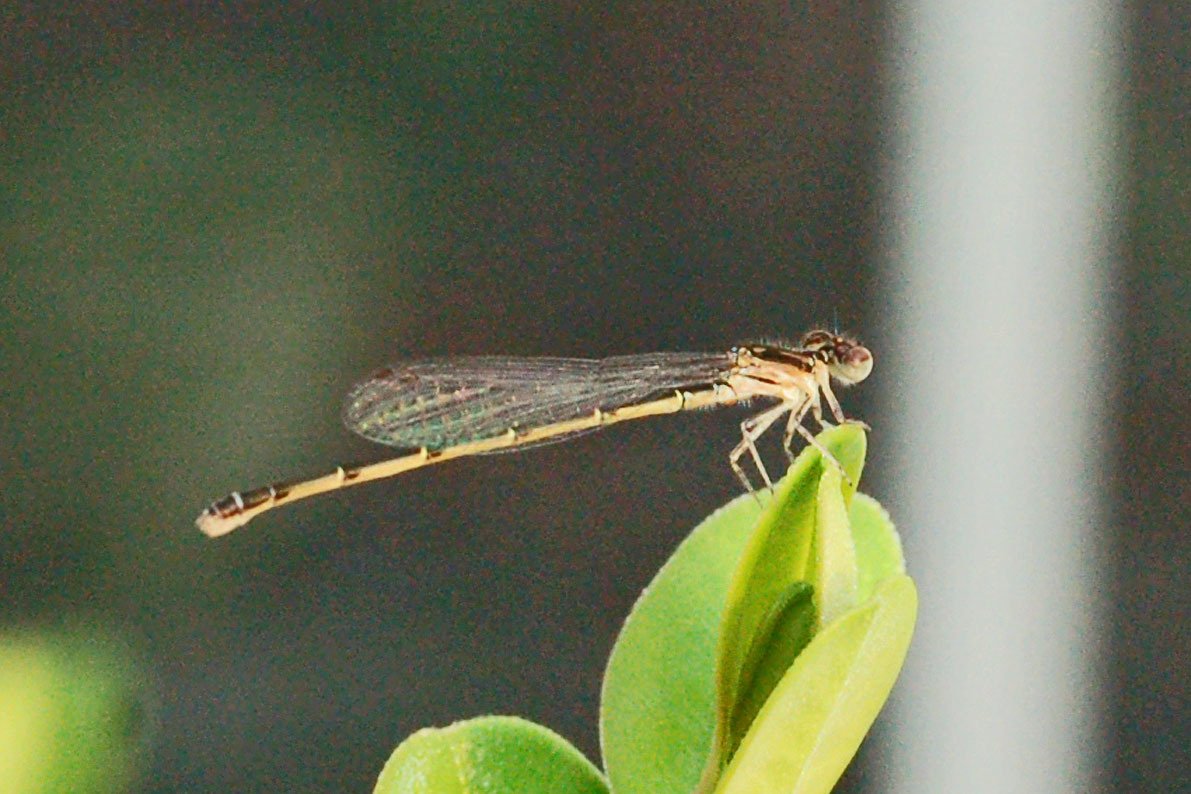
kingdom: Animalia
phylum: Arthropoda
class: Insecta
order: Odonata
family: Coenagrionidae
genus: Ischnura
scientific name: Ischnura posita
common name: Fragile forktail
